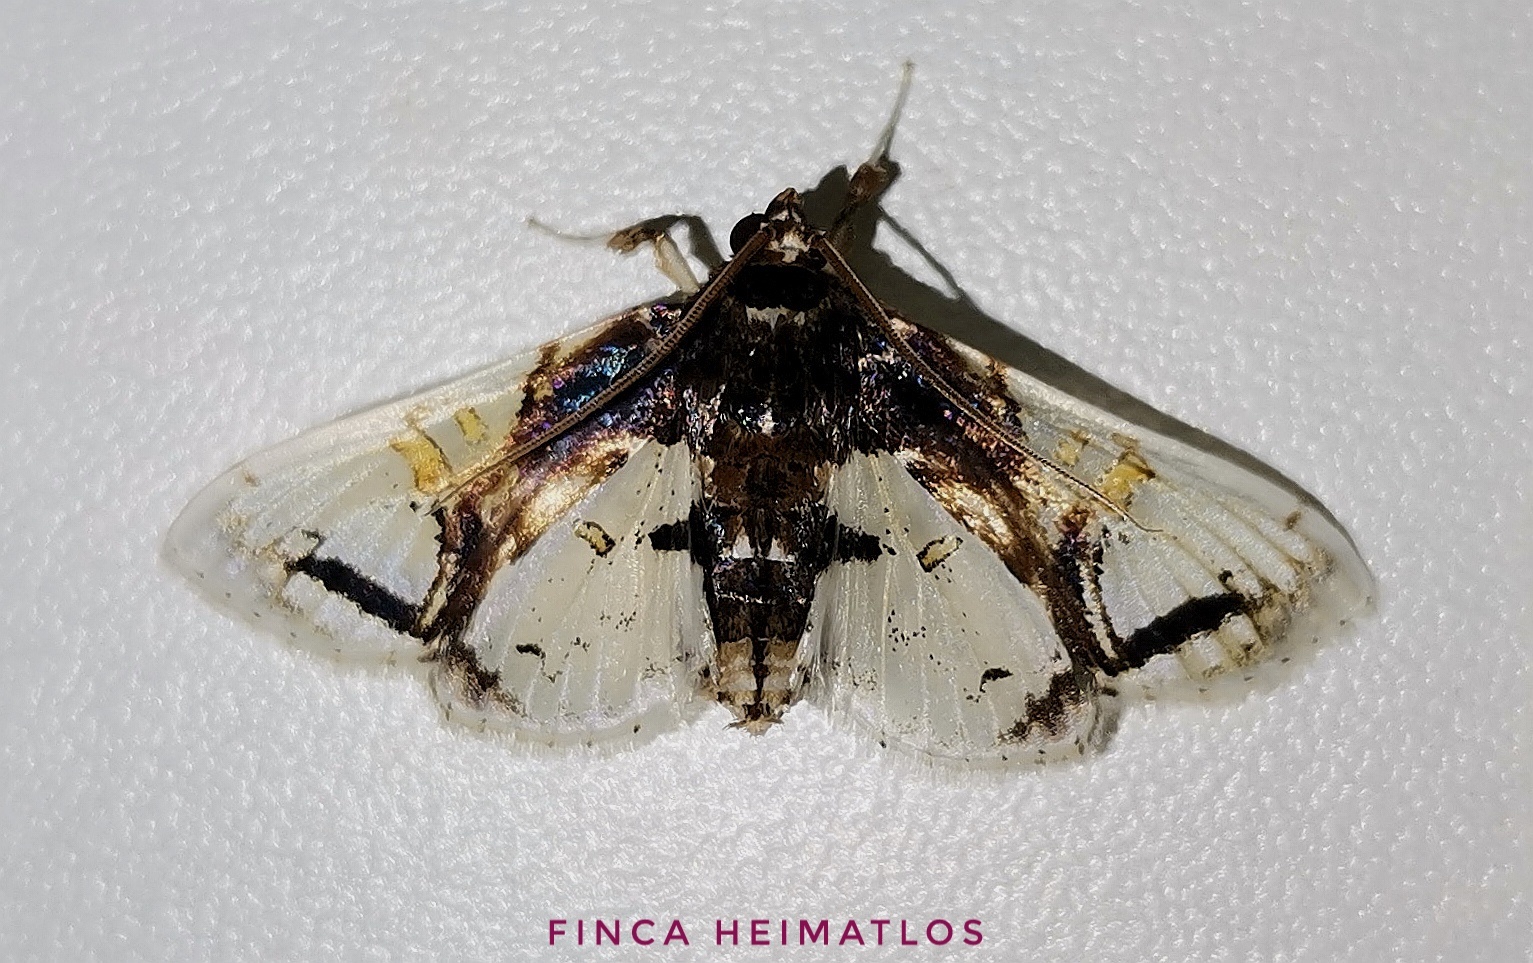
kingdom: Animalia
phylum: Arthropoda
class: Insecta
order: Lepidoptera
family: Crambidae
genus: Compacta
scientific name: Compacta nigrolinealis
